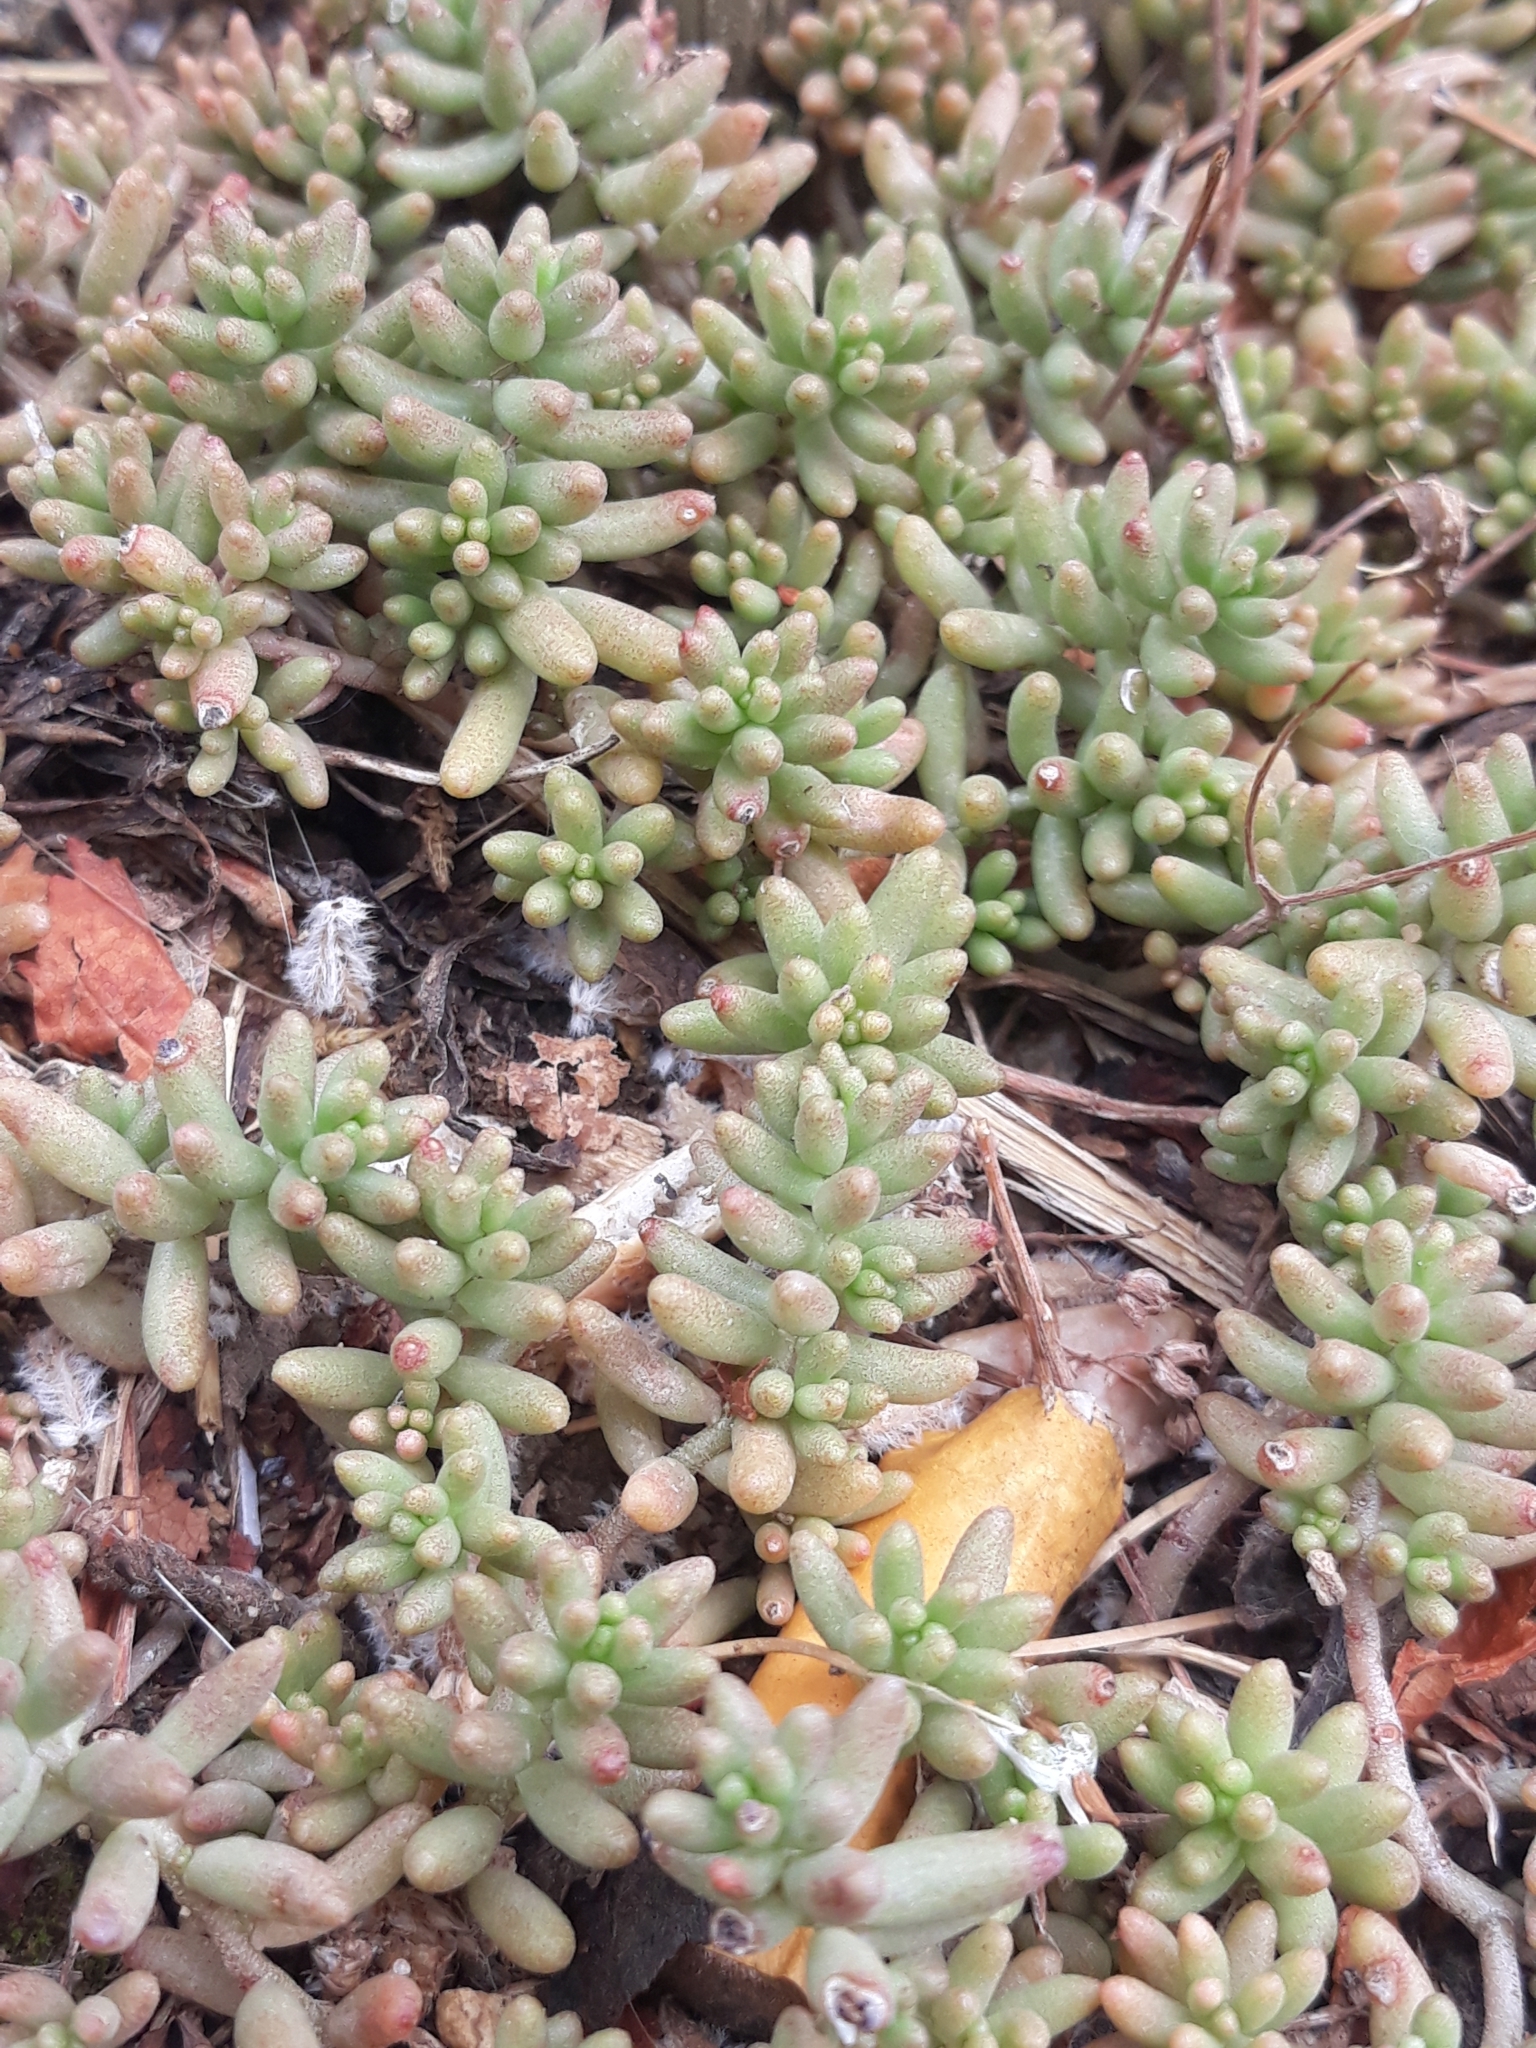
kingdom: Plantae
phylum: Tracheophyta
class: Magnoliopsida
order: Saxifragales
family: Crassulaceae
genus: Sedum
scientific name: Sedum album
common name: White stonecrop
